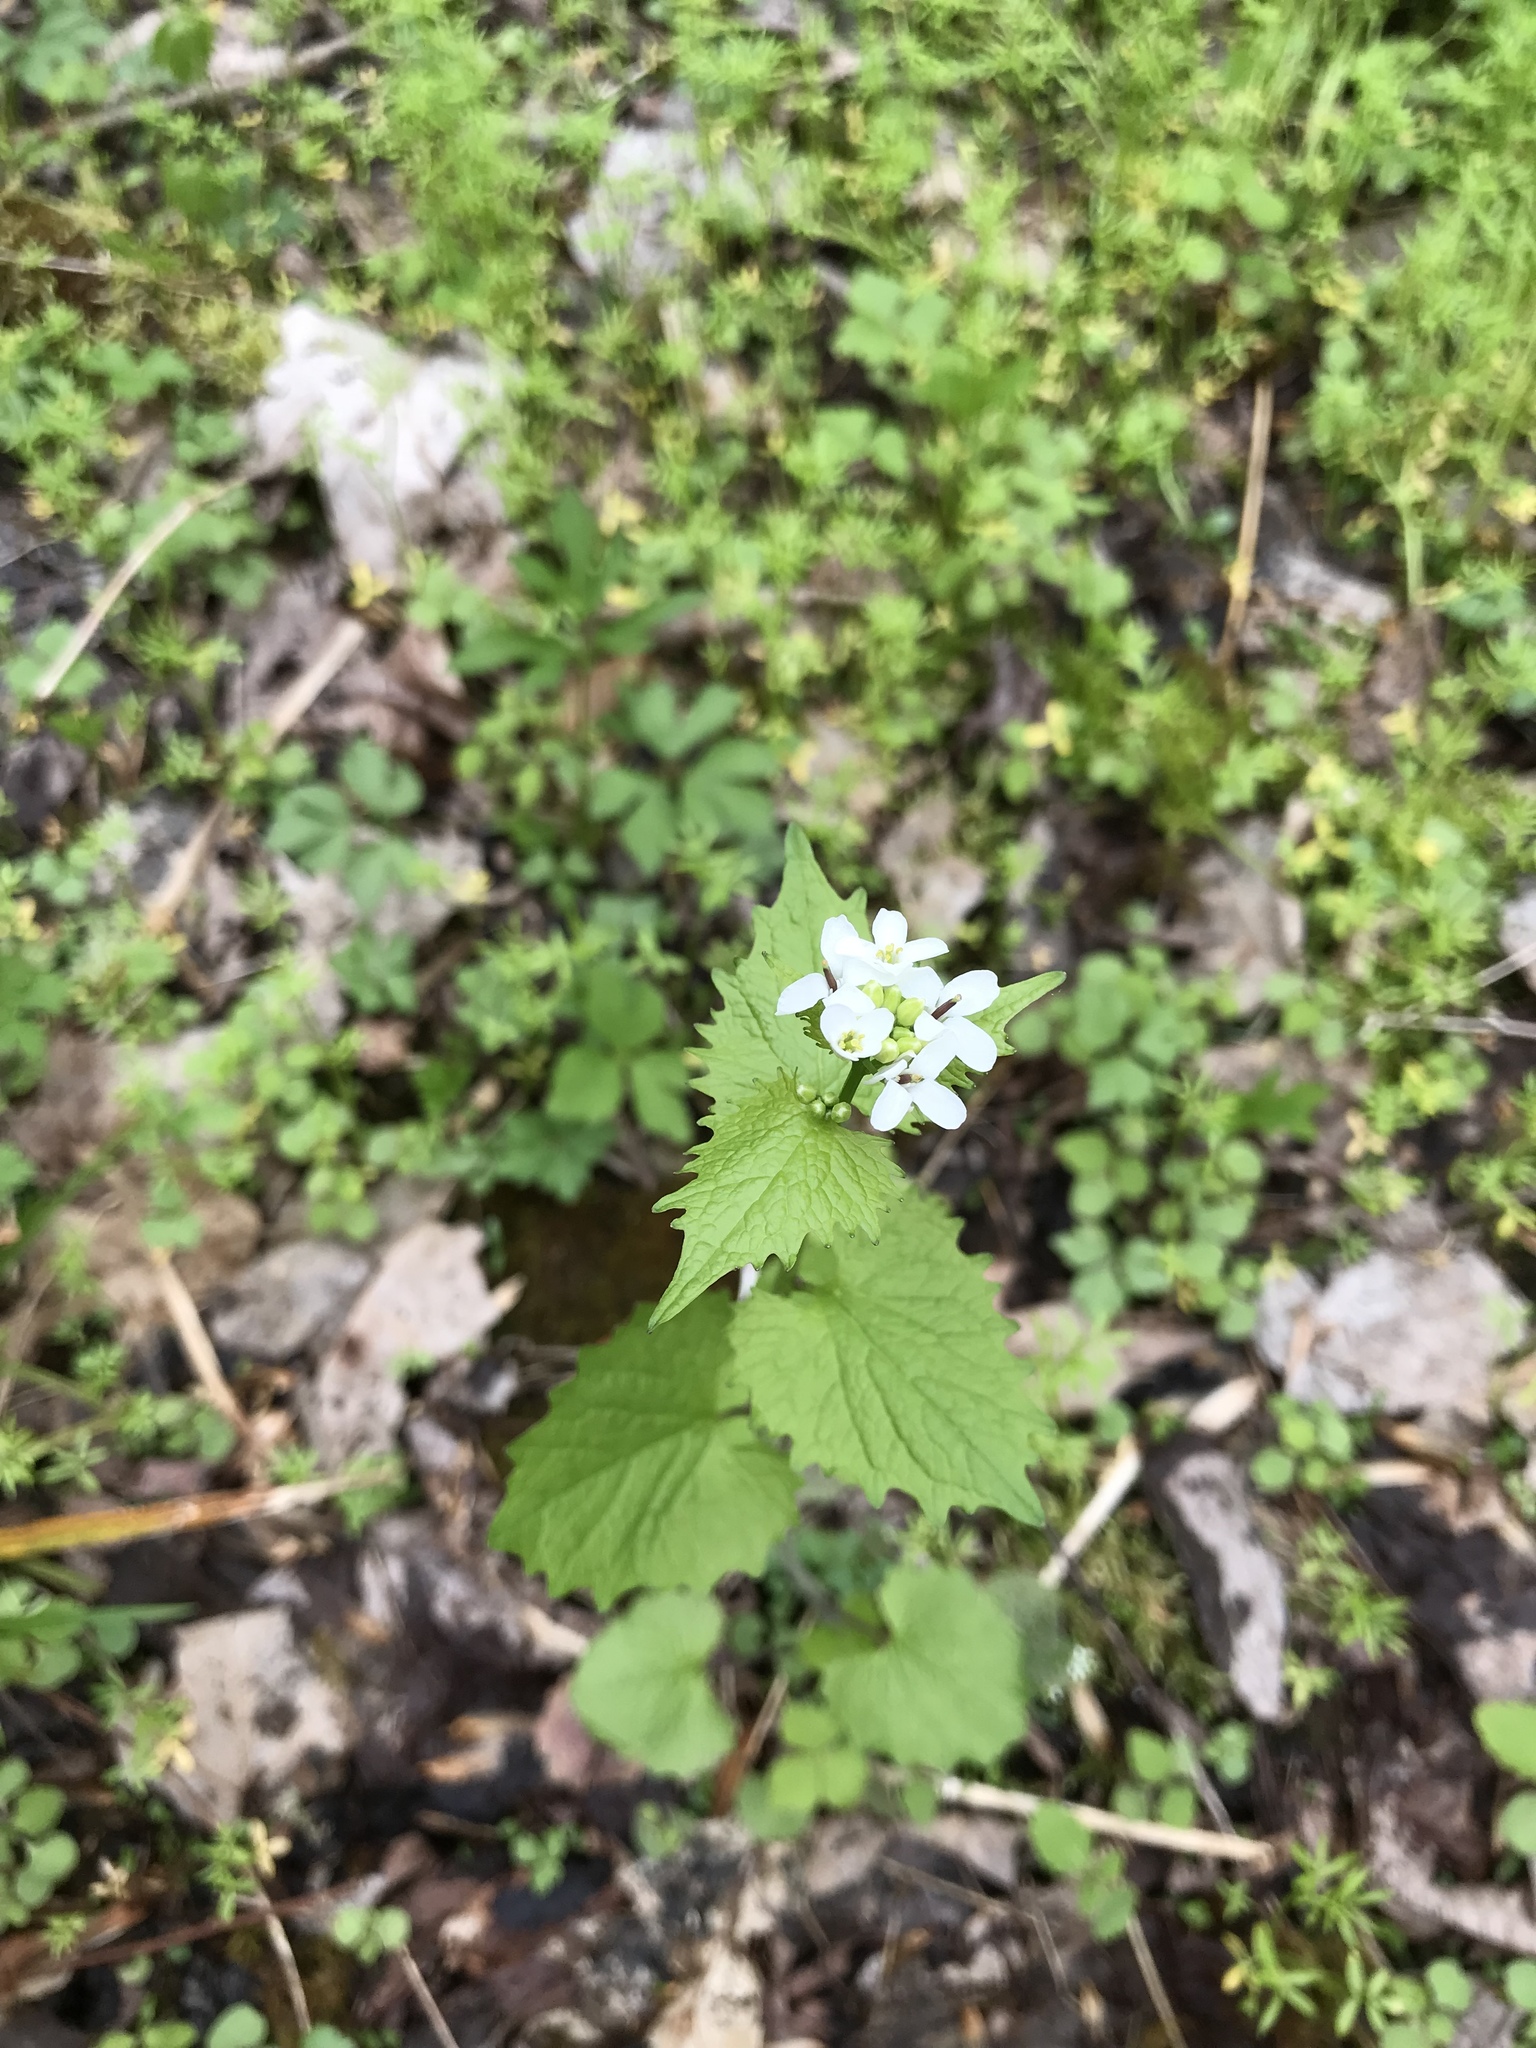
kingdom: Plantae
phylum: Tracheophyta
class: Magnoliopsida
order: Brassicales
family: Brassicaceae
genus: Alliaria
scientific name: Alliaria petiolata
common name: Garlic mustard
